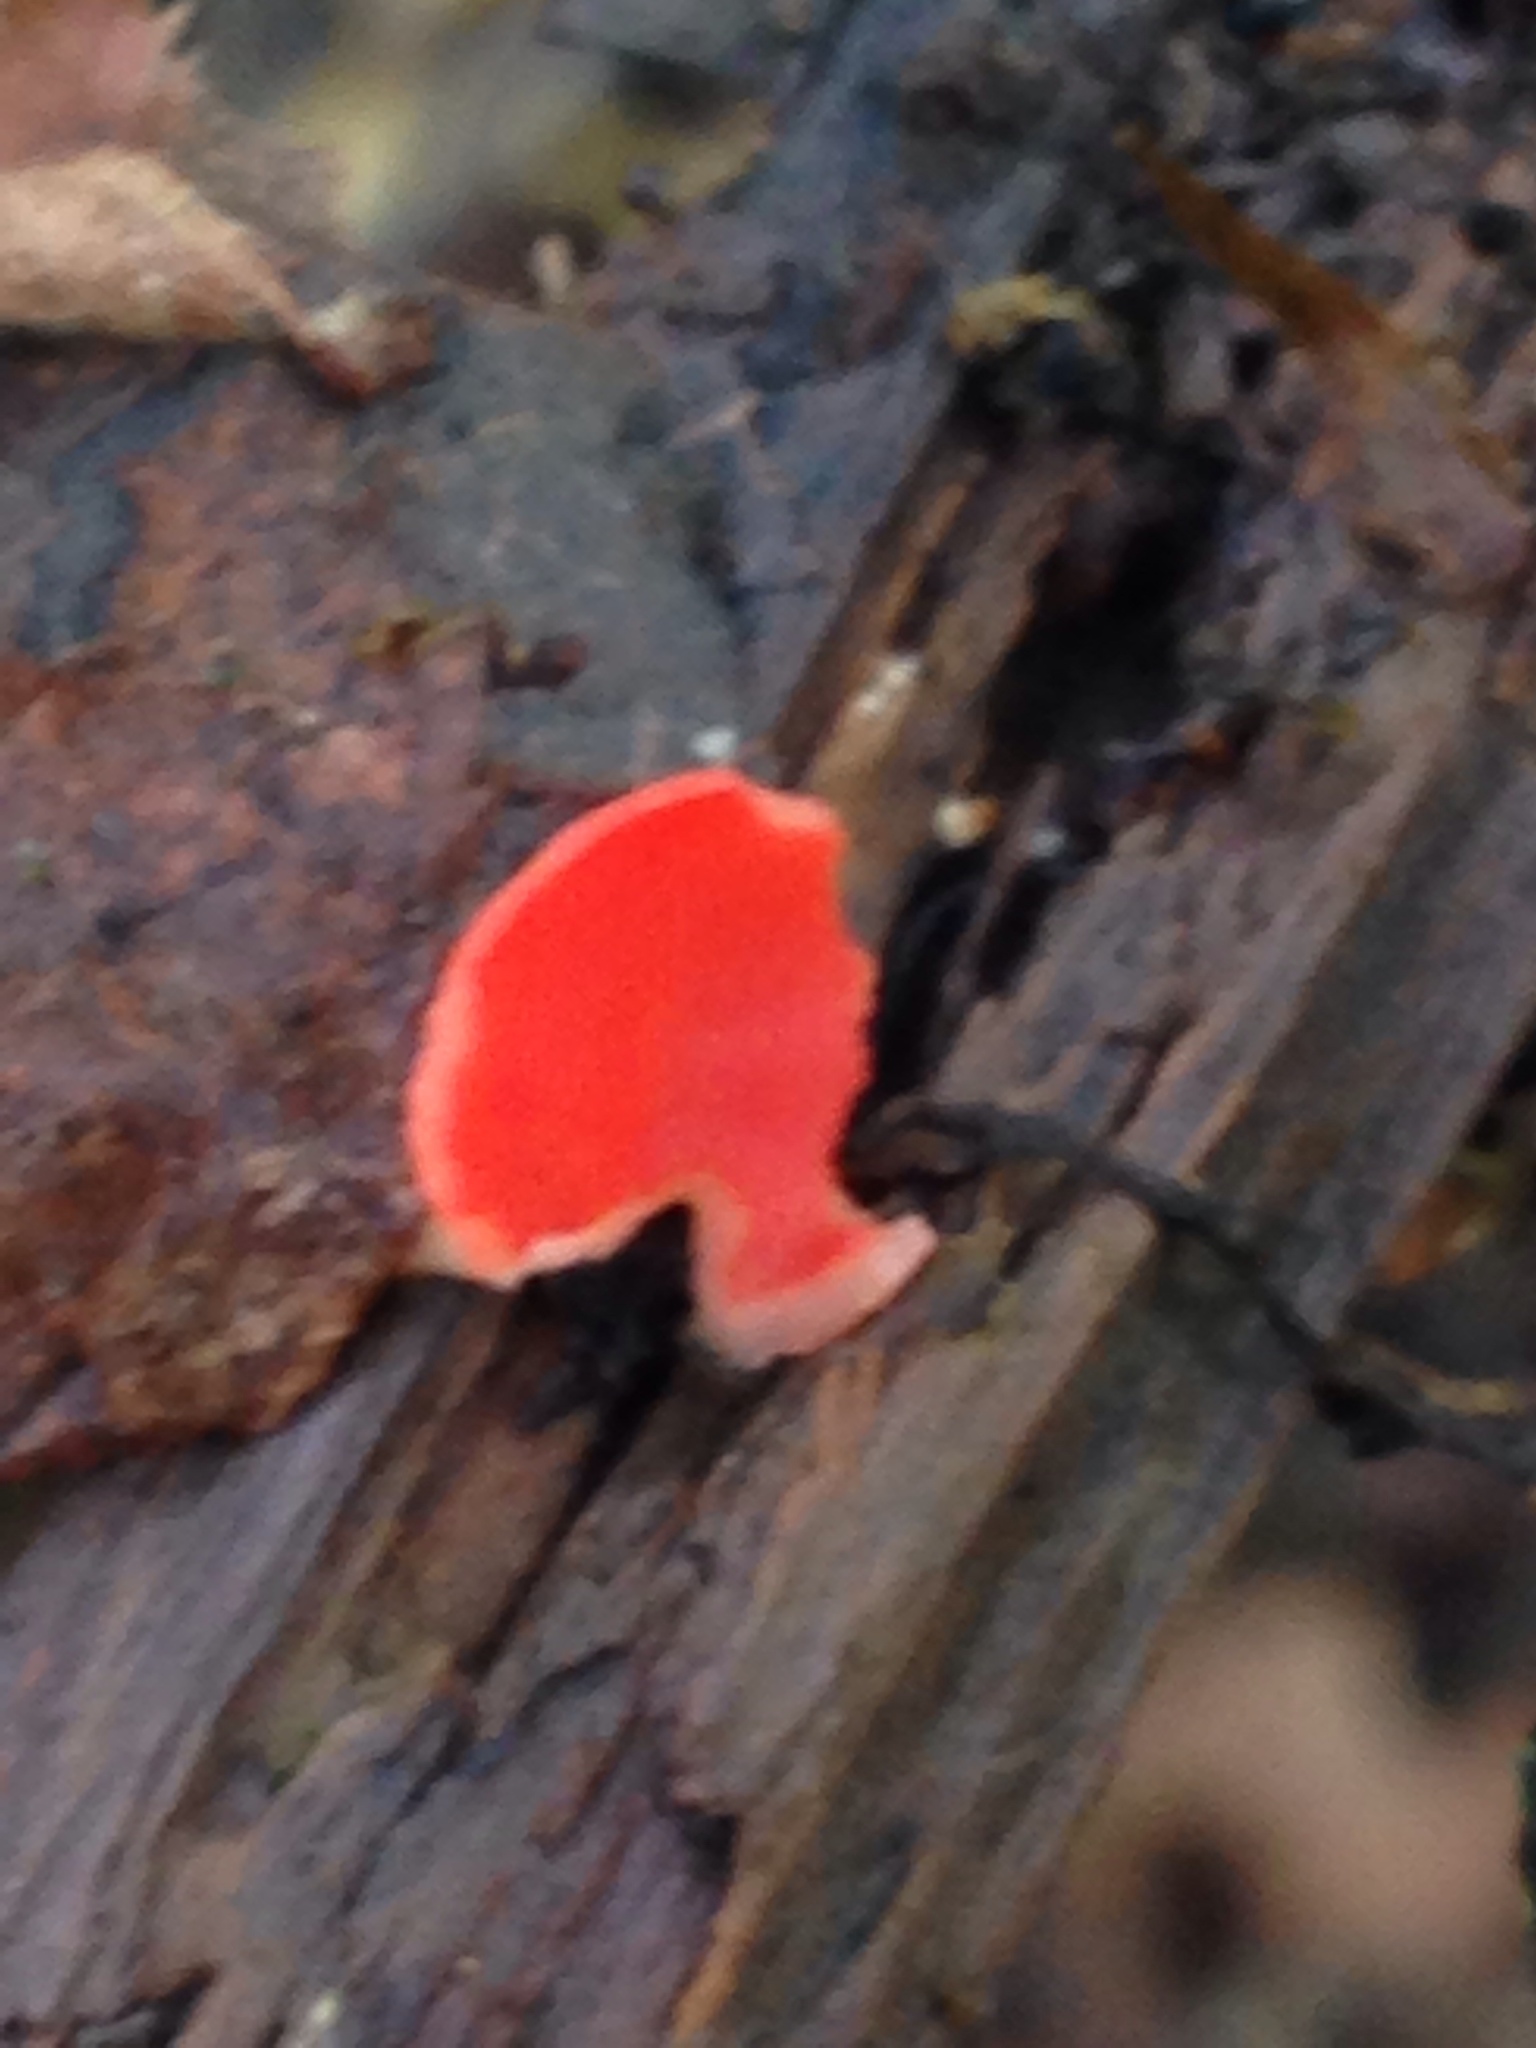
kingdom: Fungi
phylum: Ascomycota
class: Pezizomycetes
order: Pezizales
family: Sarcoscyphaceae
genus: Sarcoscypha
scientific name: Sarcoscypha occidentalis
